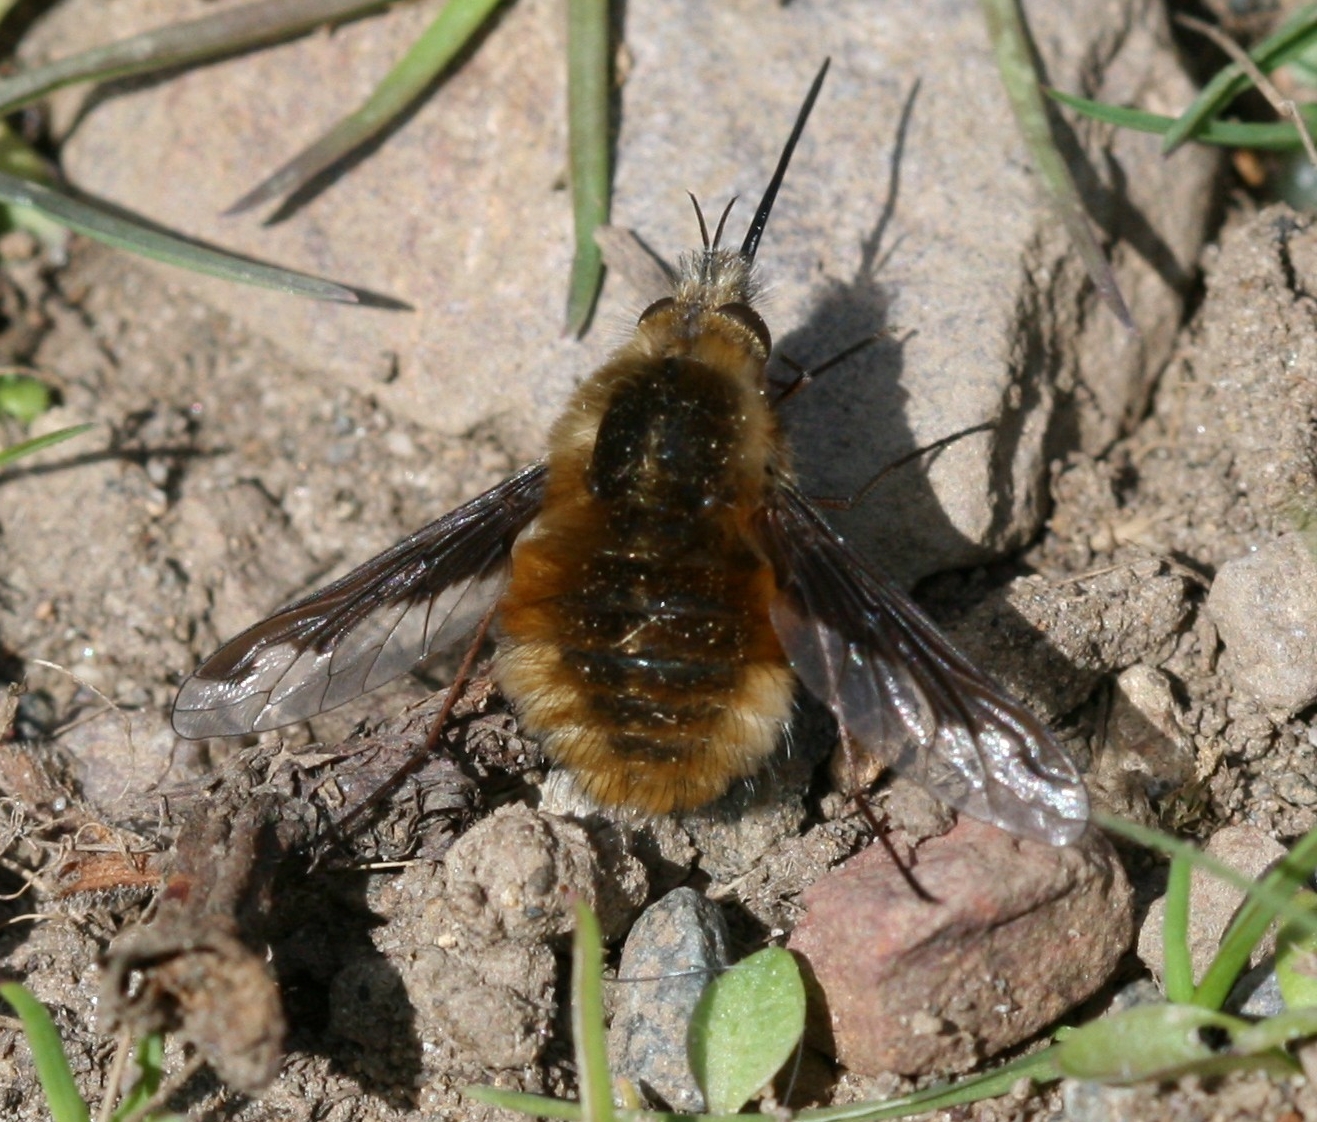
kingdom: Animalia
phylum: Arthropoda
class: Insecta
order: Diptera
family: Bombyliidae
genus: Bombylius
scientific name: Bombylius major
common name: Bee fly
